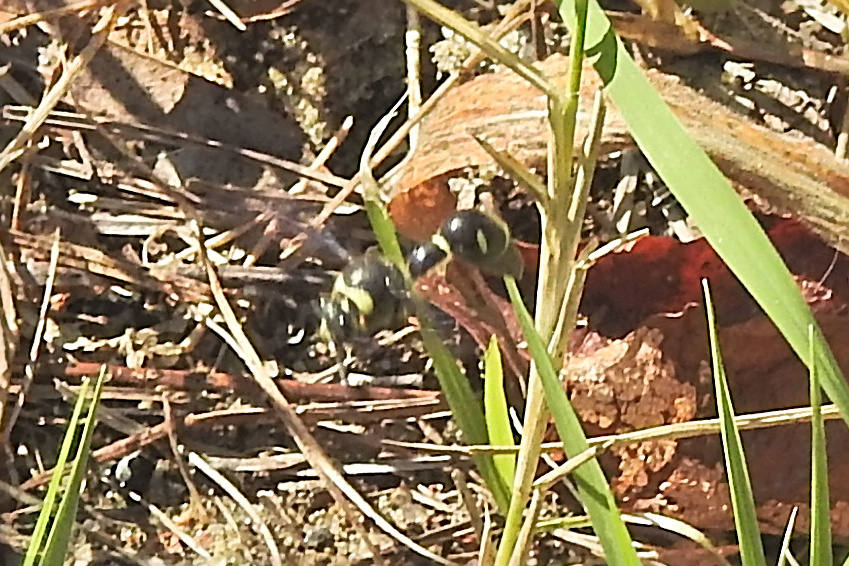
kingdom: Animalia
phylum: Arthropoda
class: Insecta
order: Hymenoptera
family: Vespidae
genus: Eumenes
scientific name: Eumenes fraternus
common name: Fraternal potter wasp
